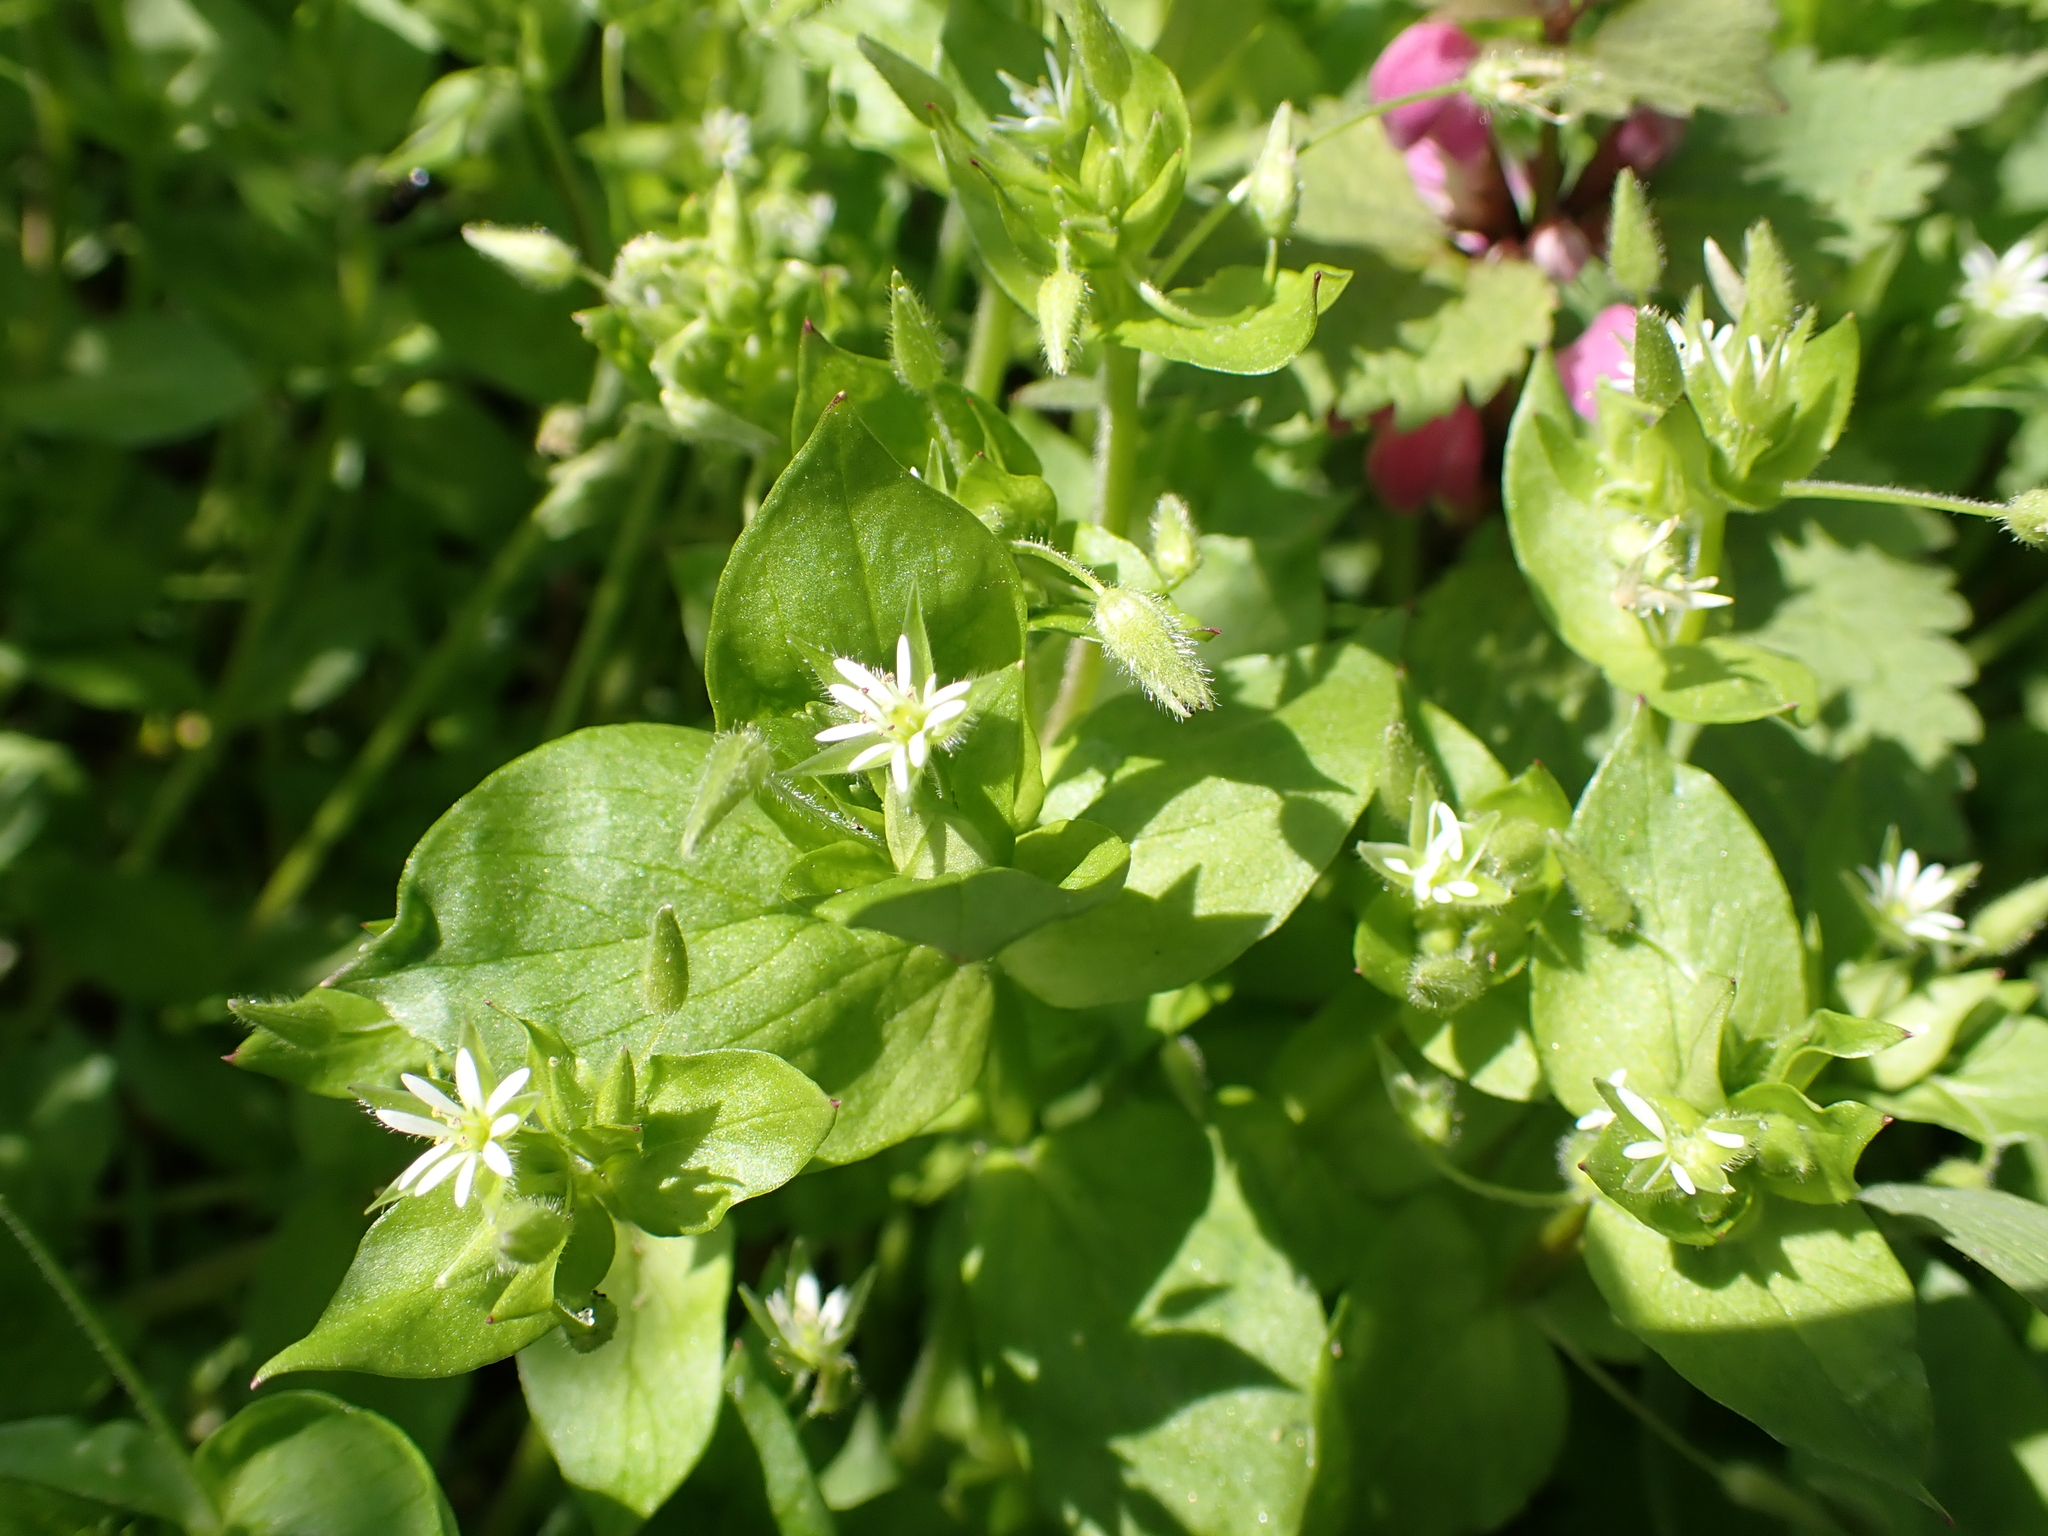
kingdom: Plantae
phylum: Tracheophyta
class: Magnoliopsida
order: Caryophyllales
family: Caryophyllaceae
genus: Stellaria
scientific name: Stellaria neglecta
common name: Greater chickweed
